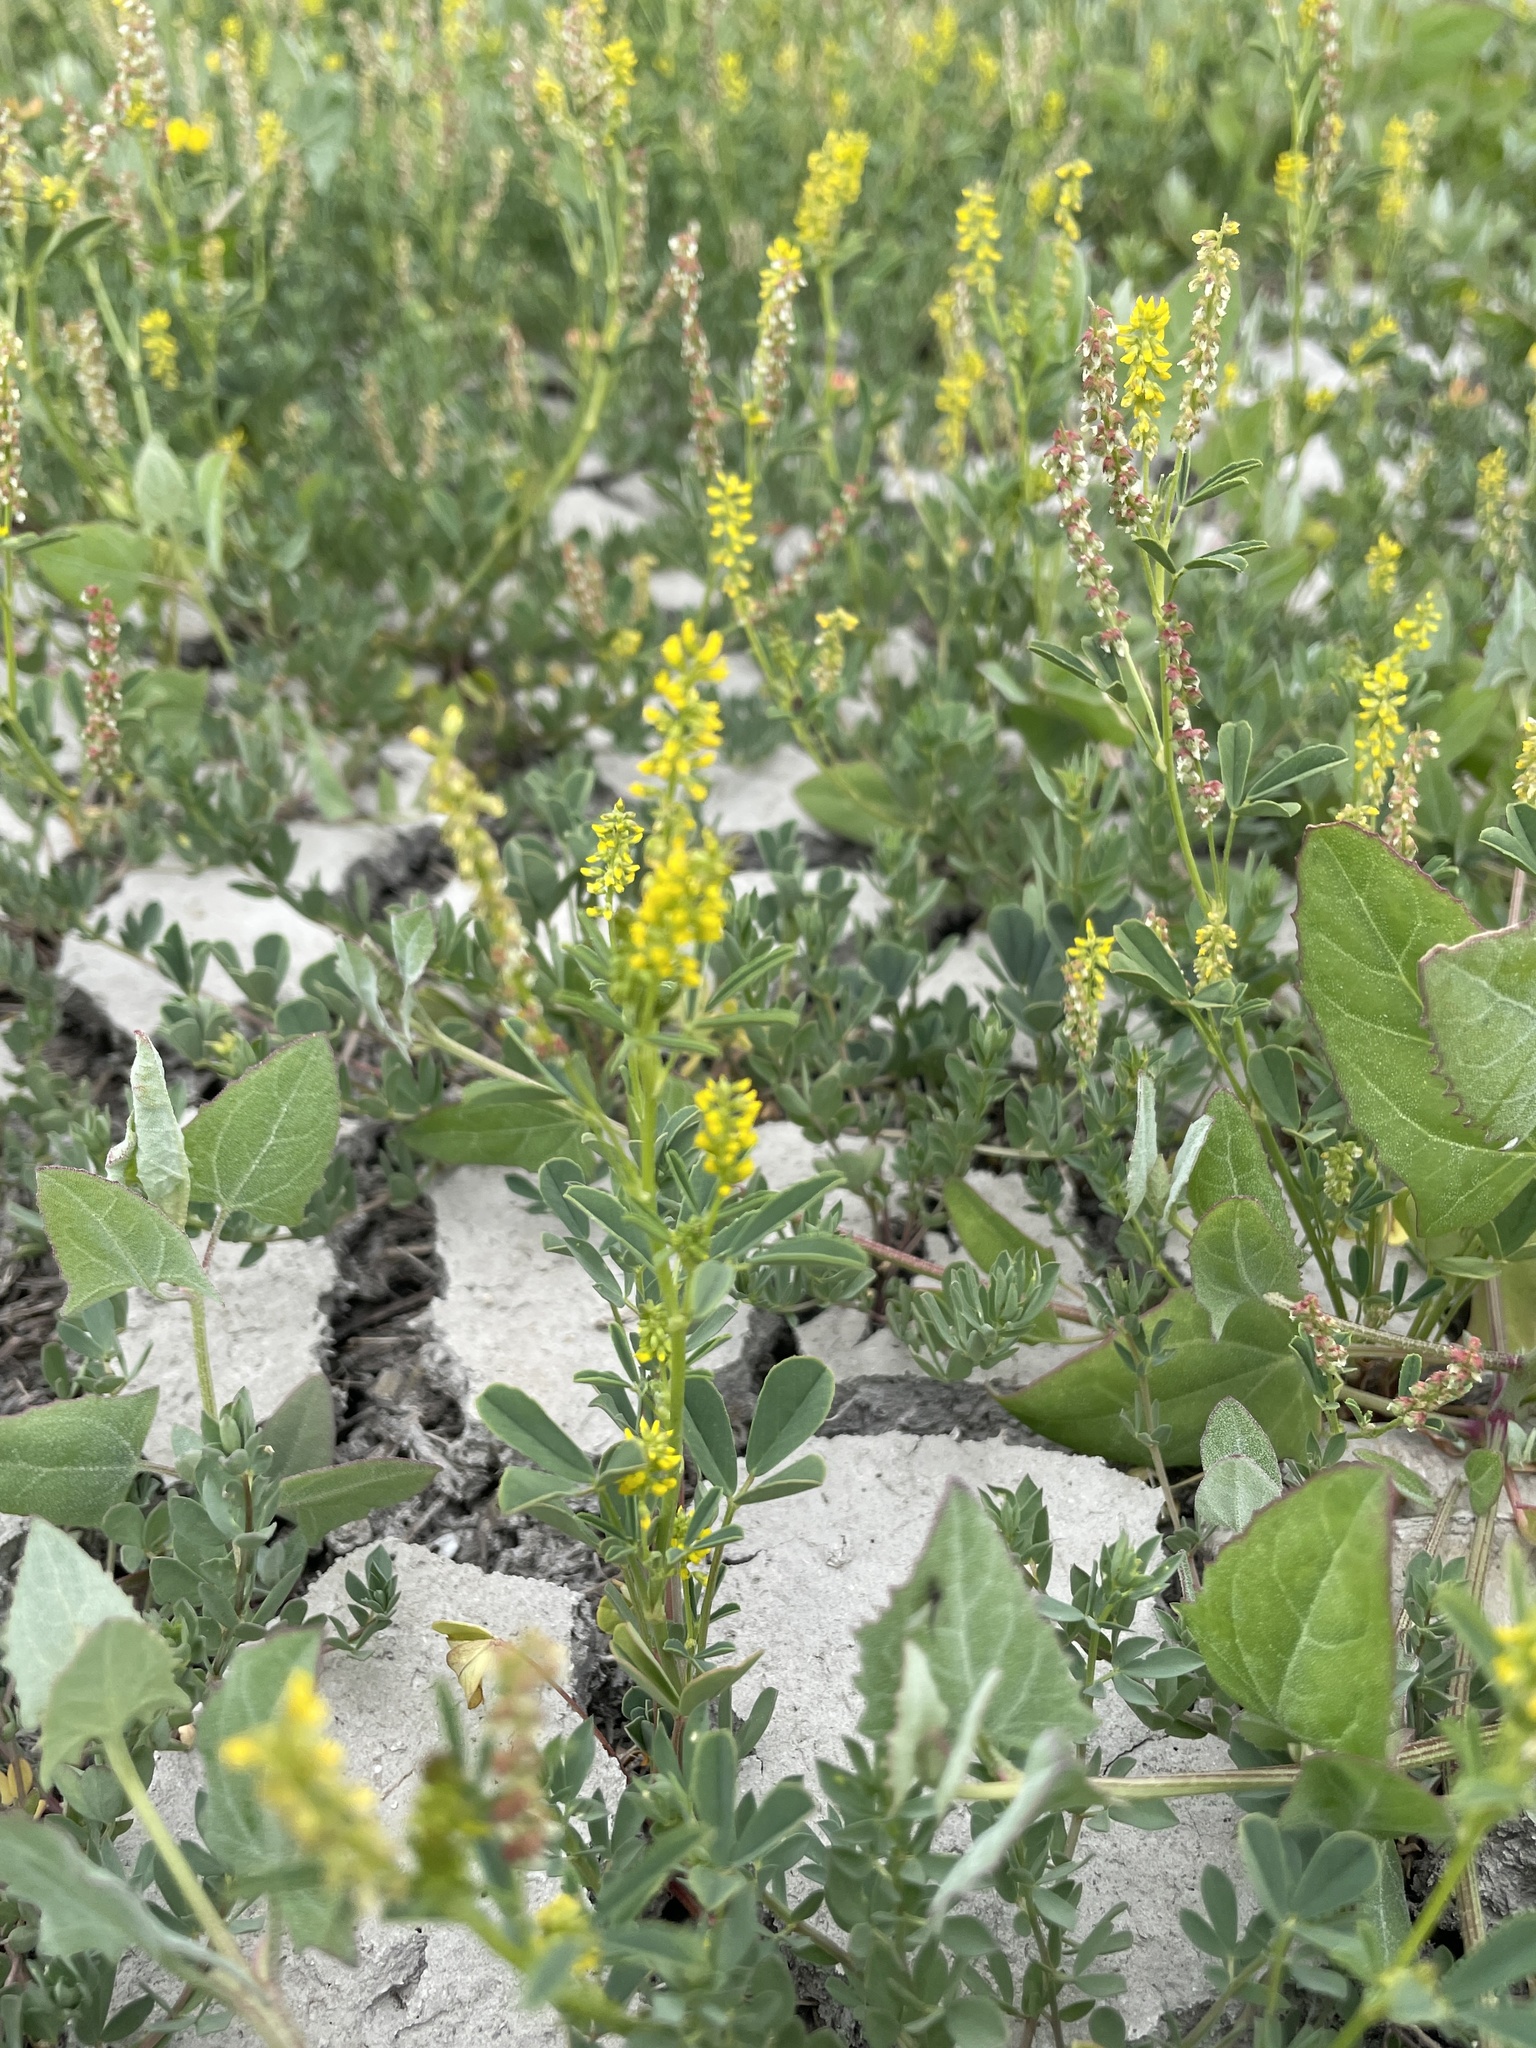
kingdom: Plantae
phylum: Tracheophyta
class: Magnoliopsida
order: Fabales
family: Fabaceae
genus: Melilotus
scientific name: Melilotus indicus
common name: Small melilot
